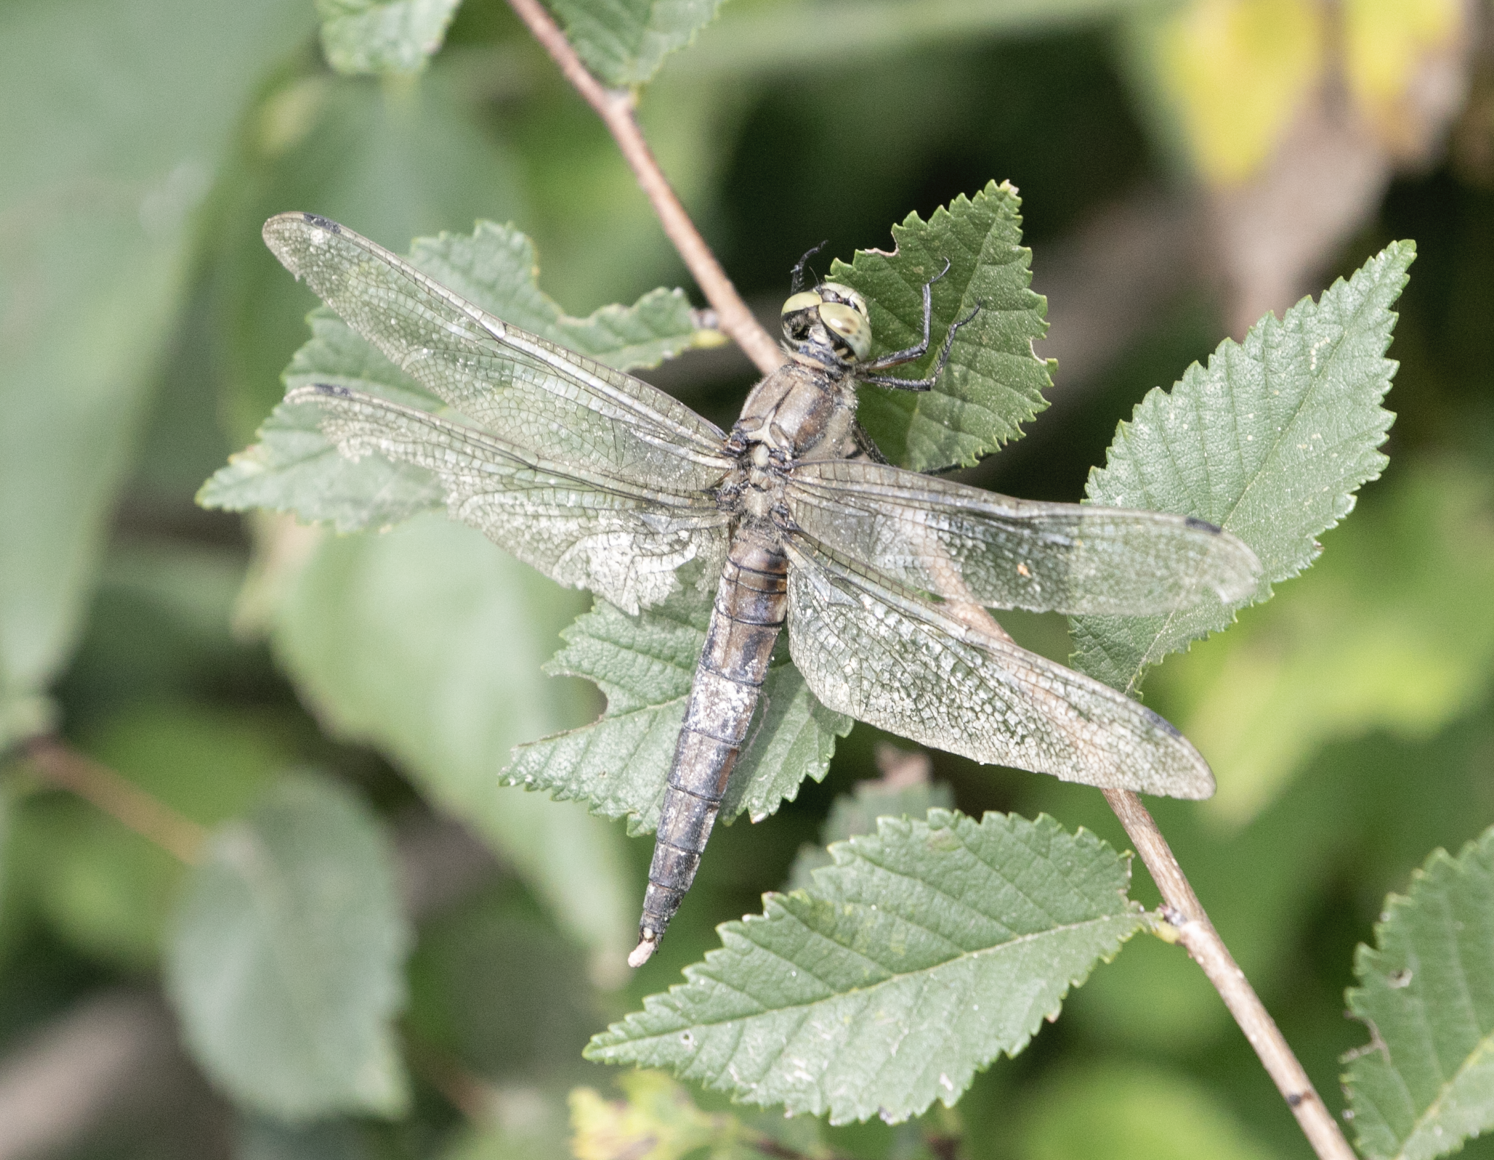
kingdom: Animalia
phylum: Arthropoda
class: Insecta
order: Odonata
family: Libellulidae
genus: Orthetrum
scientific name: Orthetrum cancellatum
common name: Black-tailed skimmer
